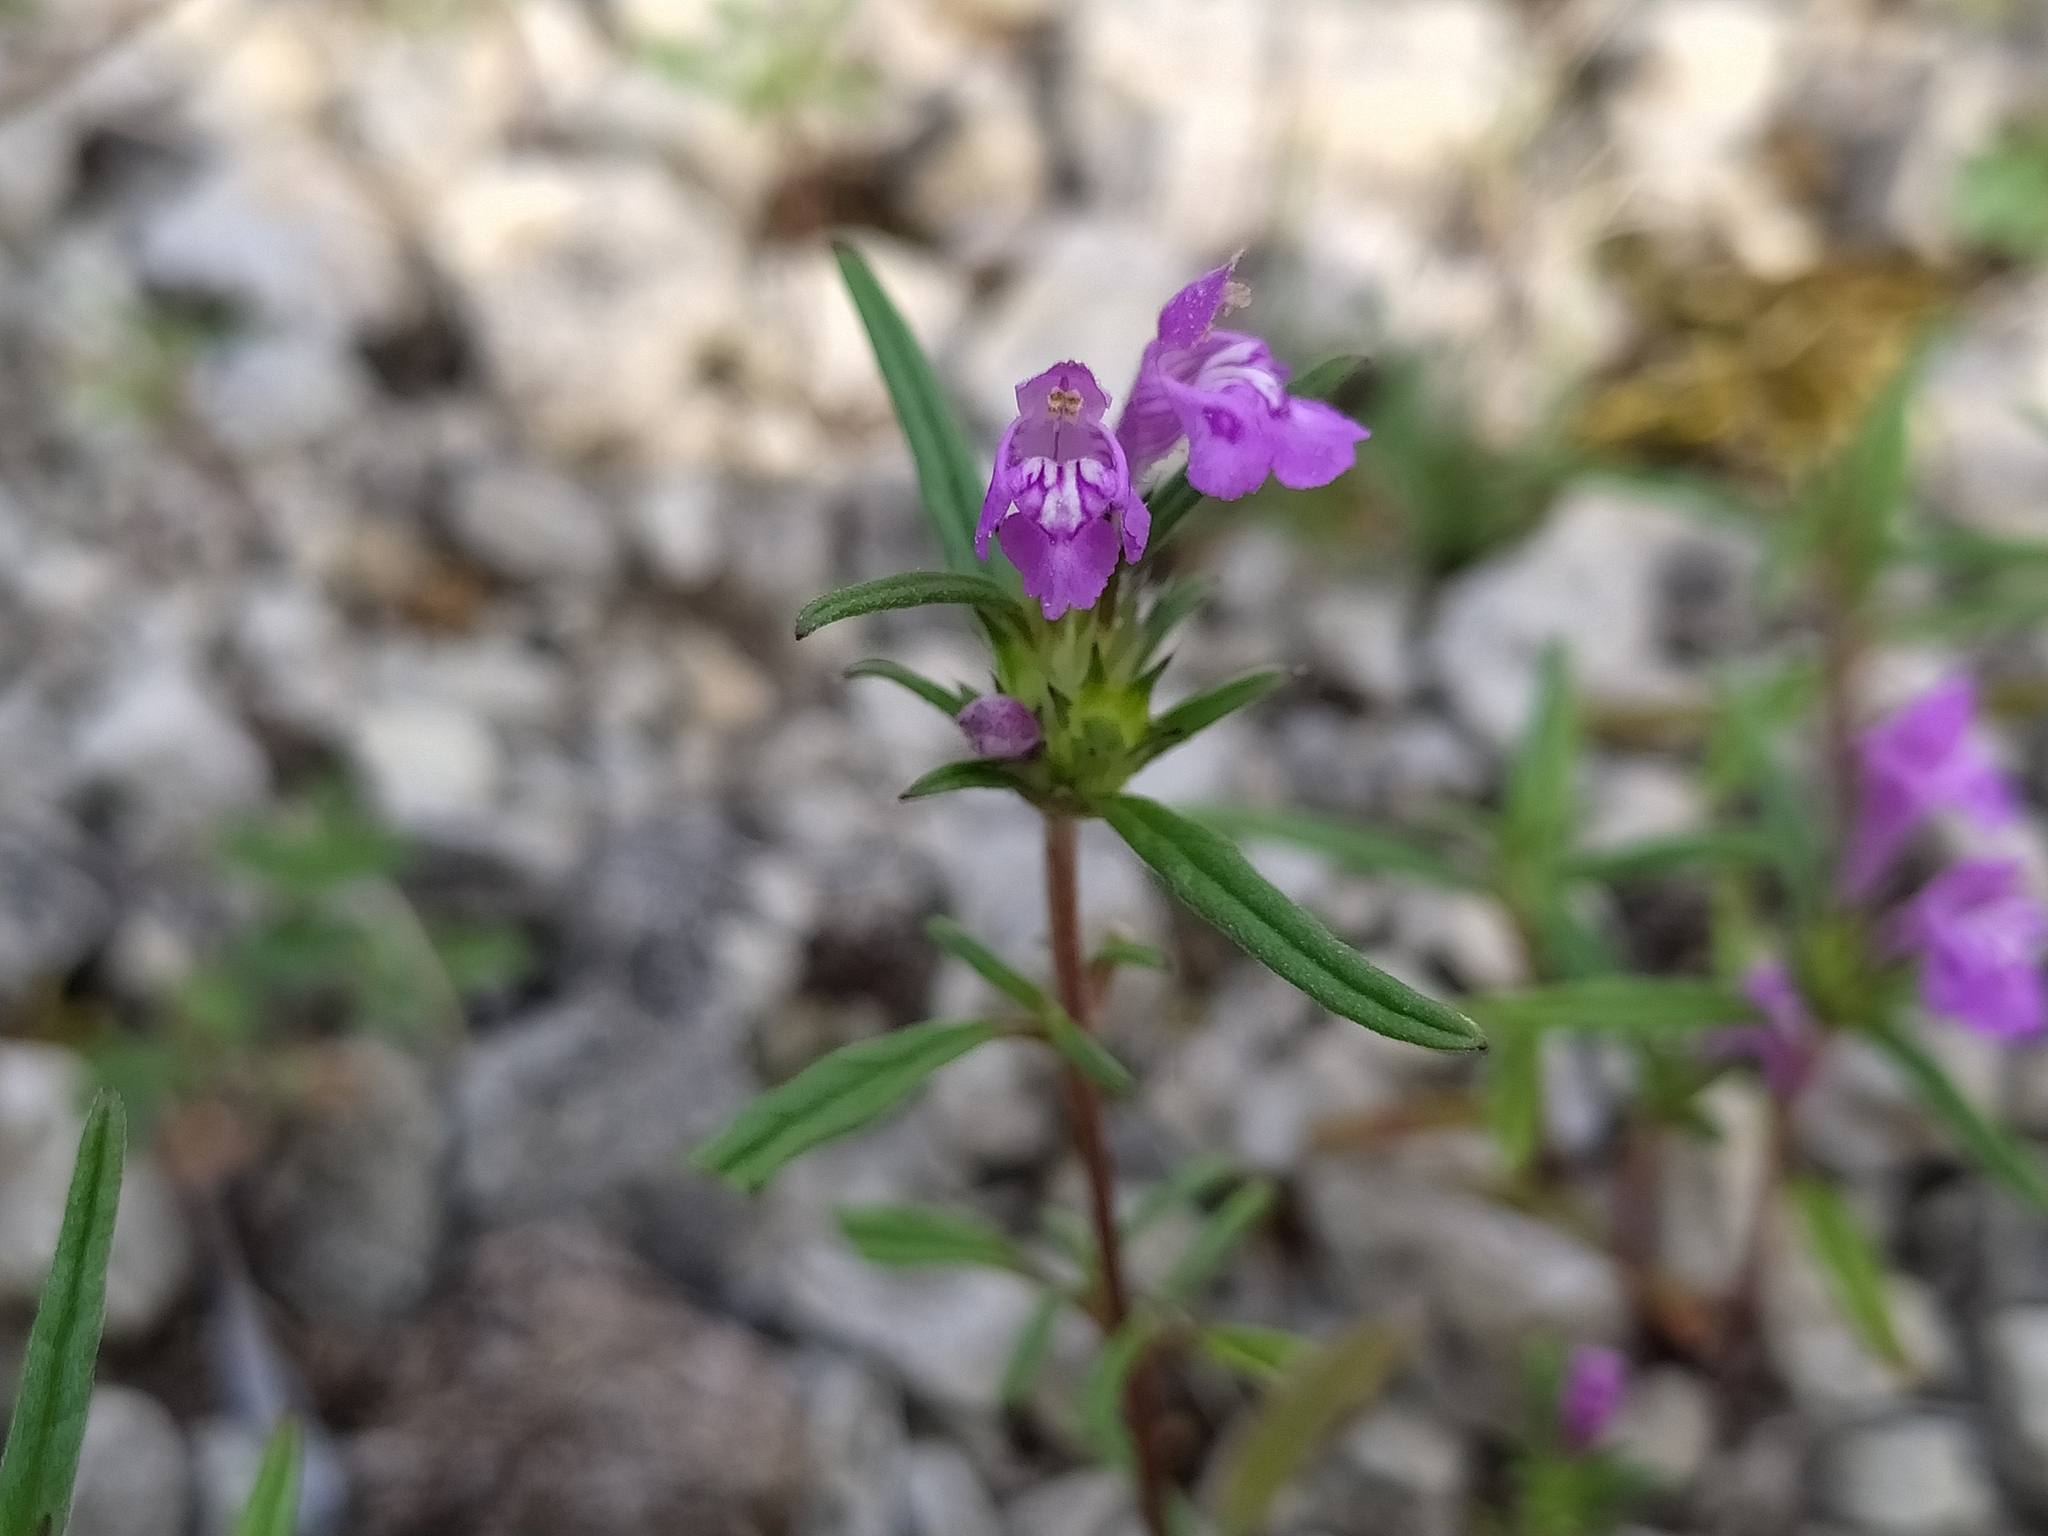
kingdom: Plantae
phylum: Tracheophyta
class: Magnoliopsida
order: Lamiales
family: Lamiaceae
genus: Galeopsis
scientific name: Galeopsis angustifolia
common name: Red hemp-nettle
